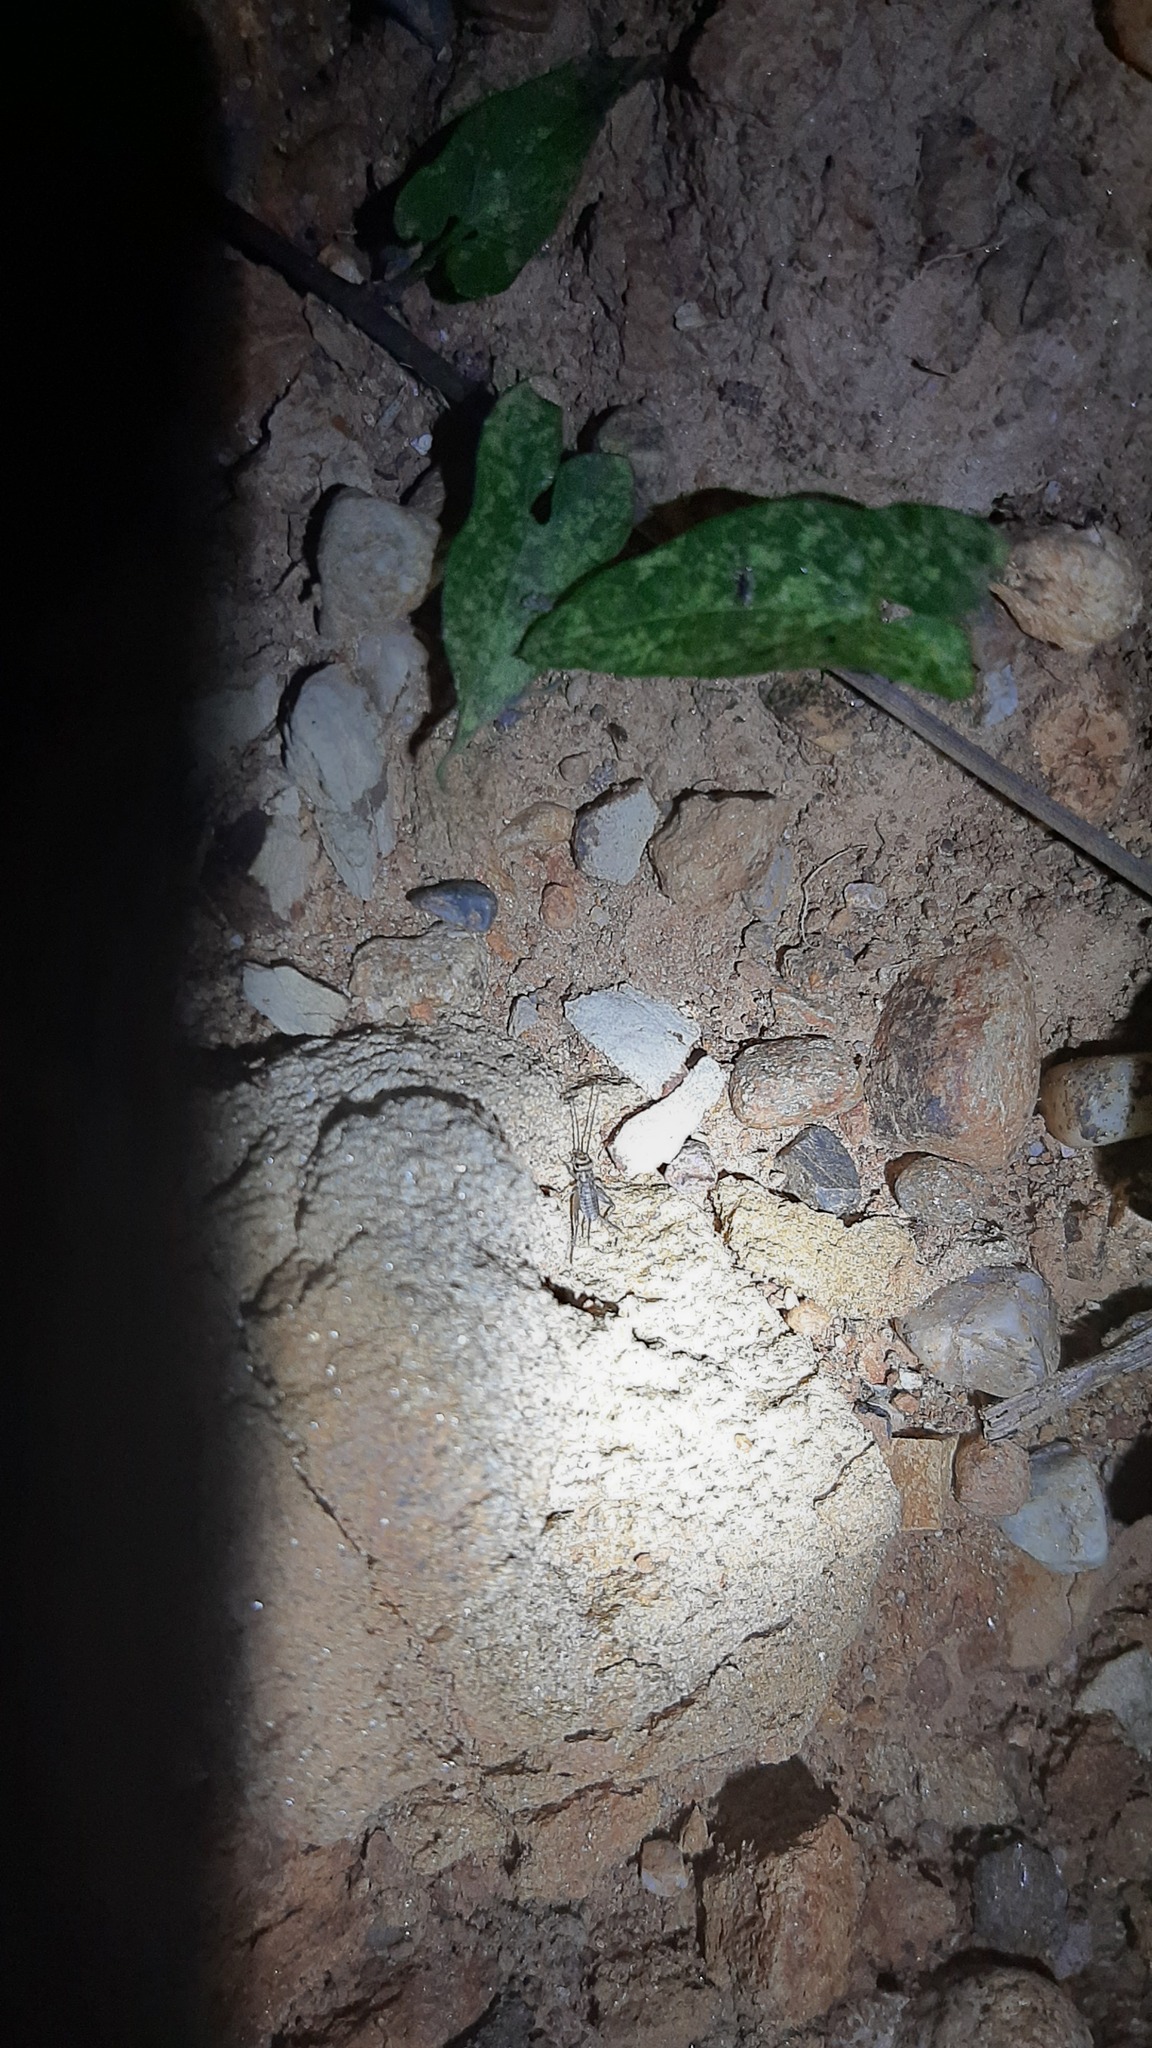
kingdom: Animalia
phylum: Arthropoda
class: Insecta
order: Orthoptera
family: Gryllidae
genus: Eumodicogryllus
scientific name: Eumodicogryllus bordigalensis
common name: Bordeaux cricket
